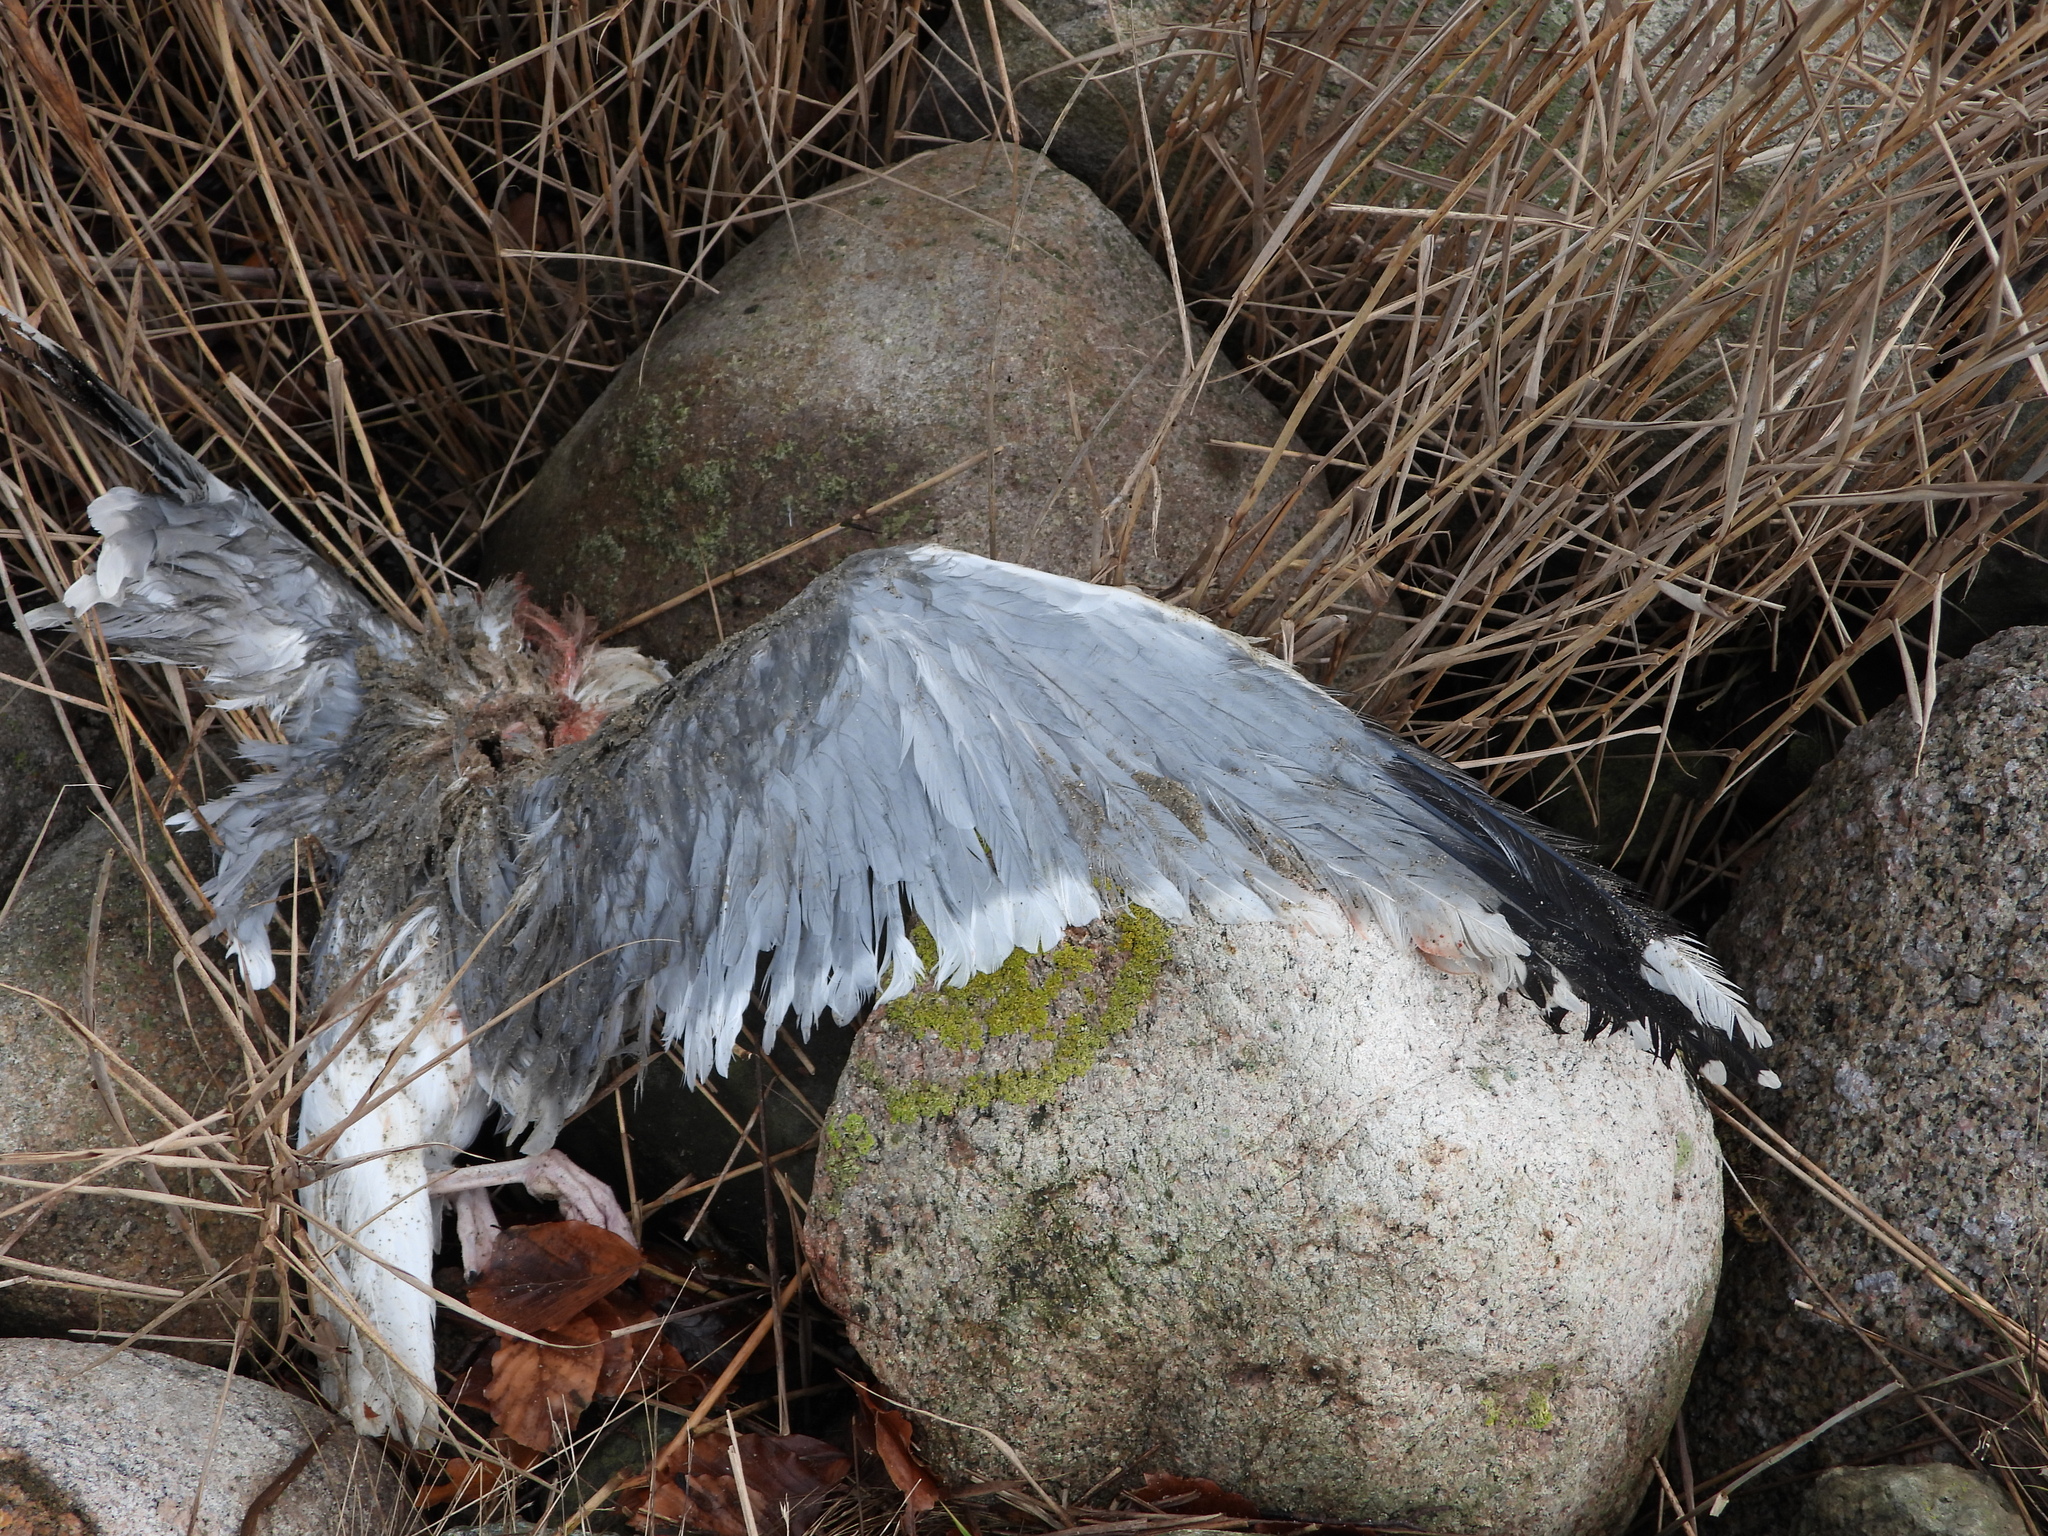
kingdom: Animalia
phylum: Chordata
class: Aves
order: Charadriiformes
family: Laridae
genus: Larus
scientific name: Larus argentatus
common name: Herring gull
